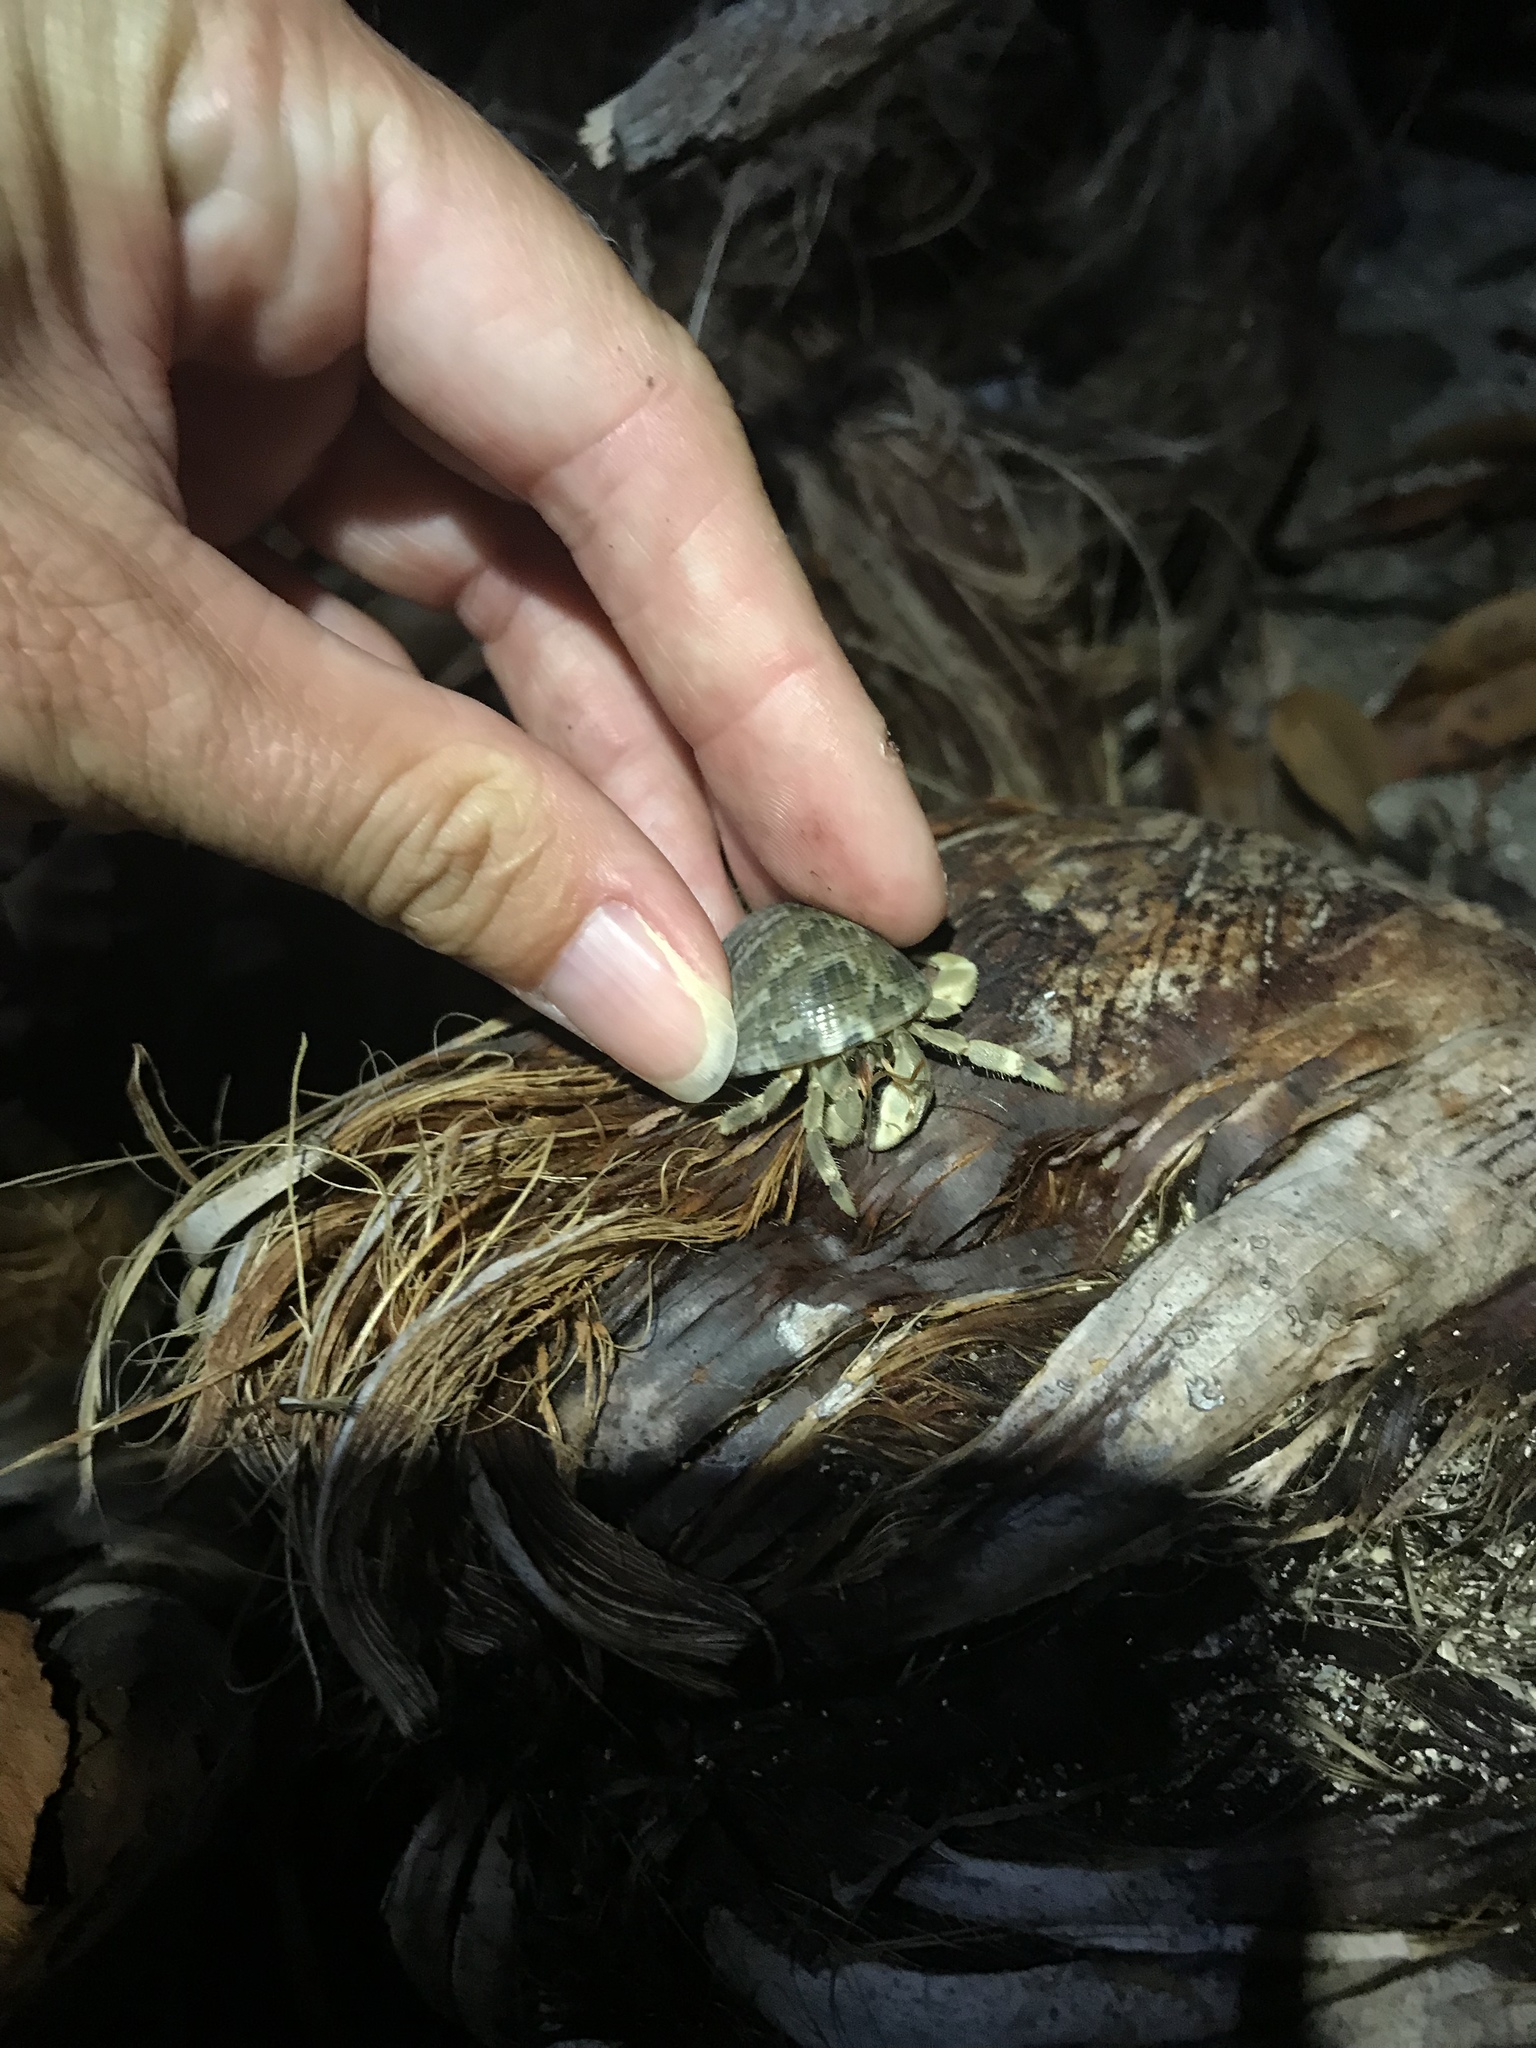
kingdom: Animalia
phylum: Arthropoda
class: Malacostraca
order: Decapoda
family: Coenobitidae
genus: Coenobita
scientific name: Coenobita rugosus
